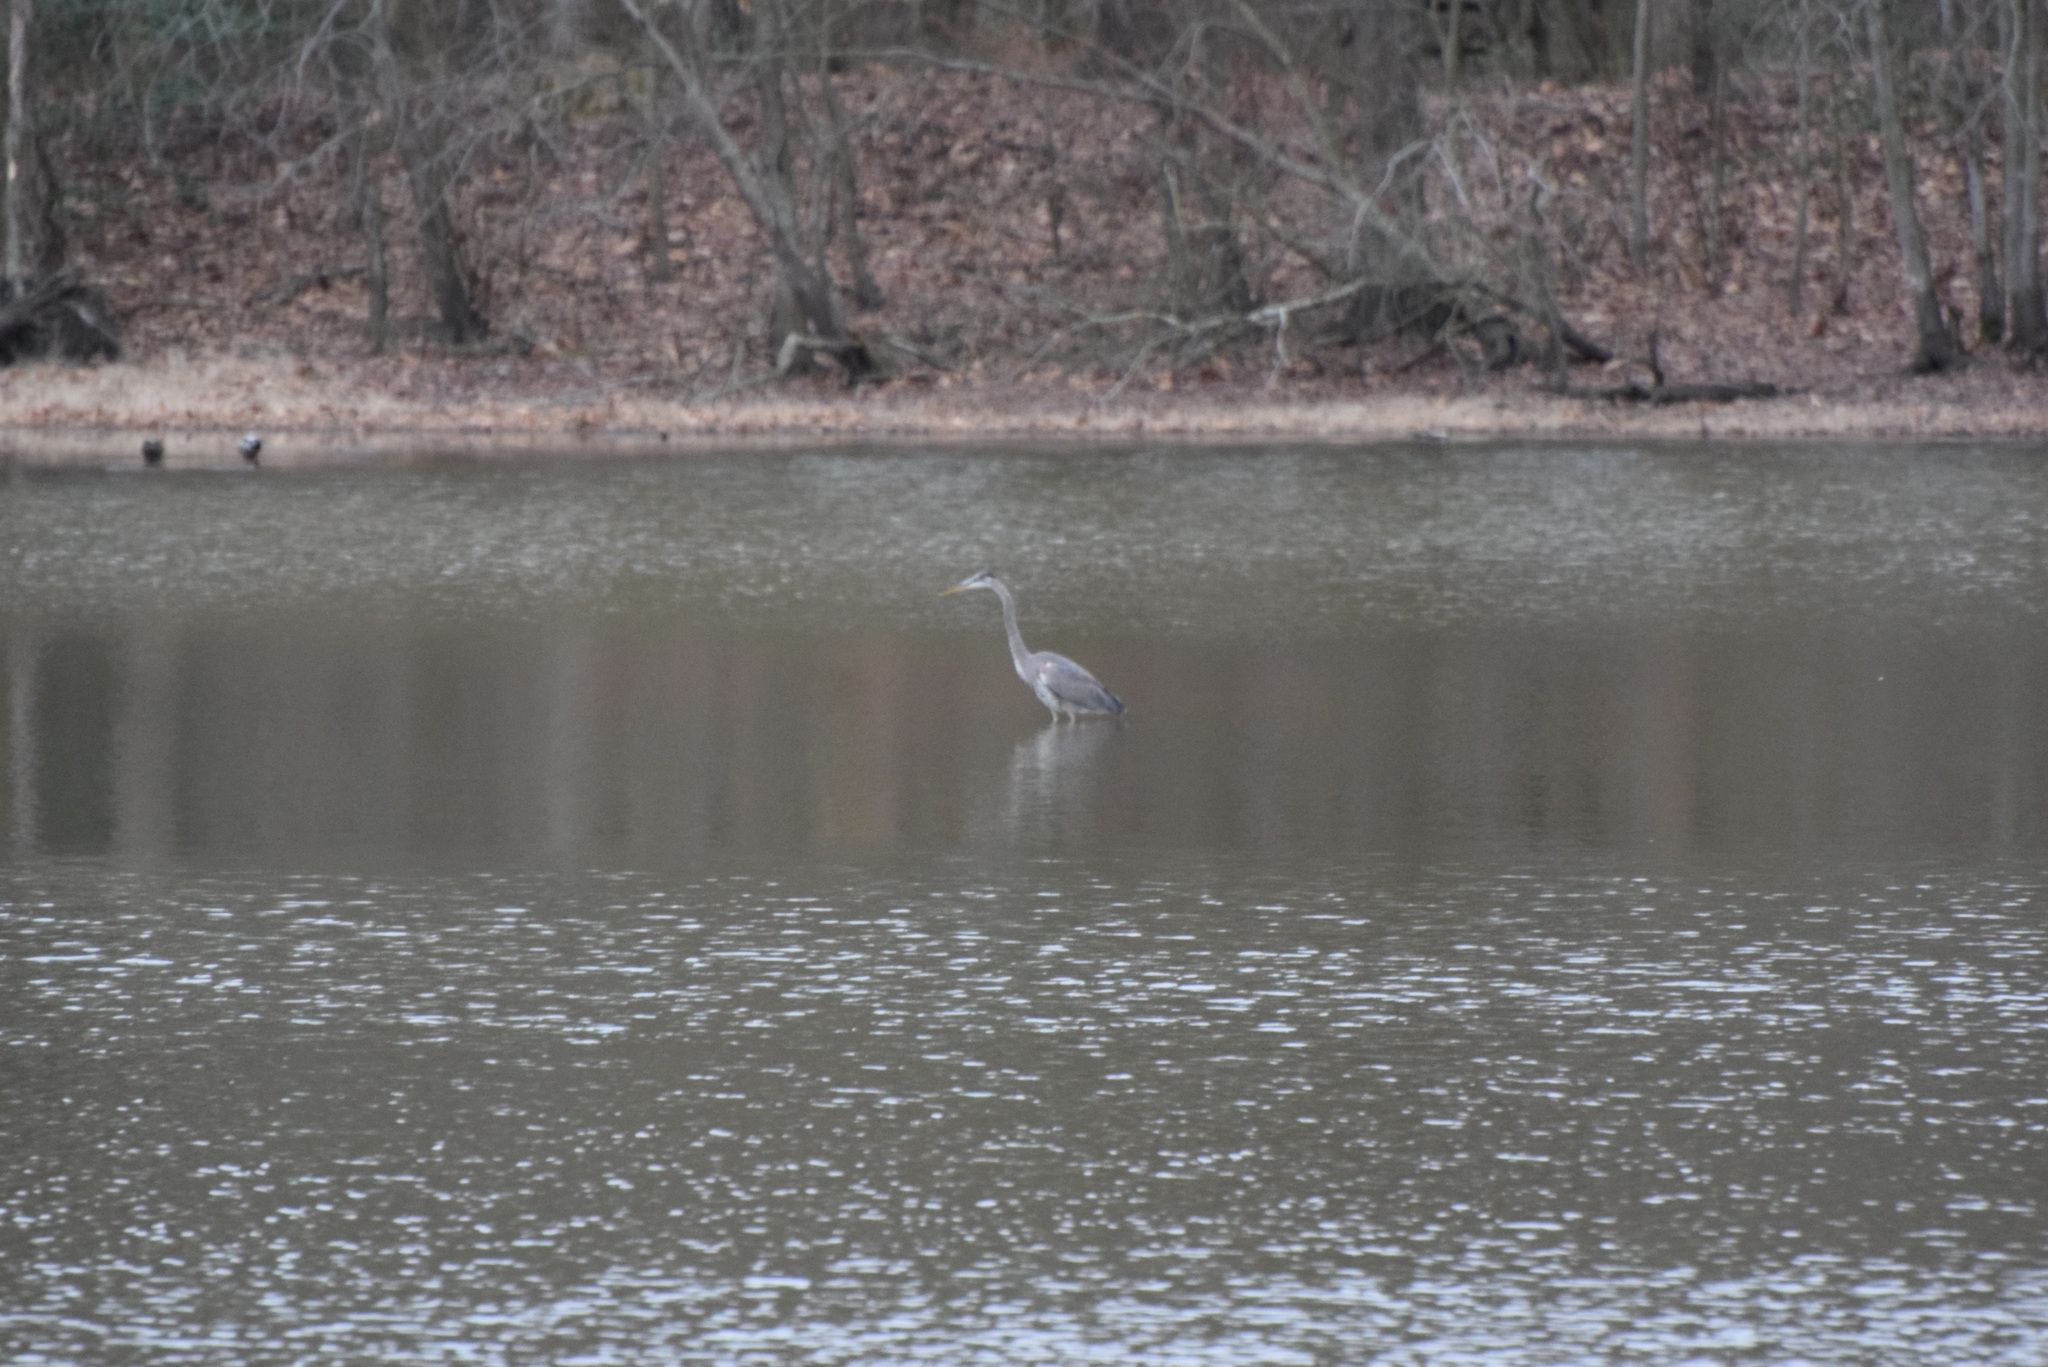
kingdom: Animalia
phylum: Chordata
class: Aves
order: Pelecaniformes
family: Ardeidae
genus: Ardea
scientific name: Ardea herodias
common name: Great blue heron
